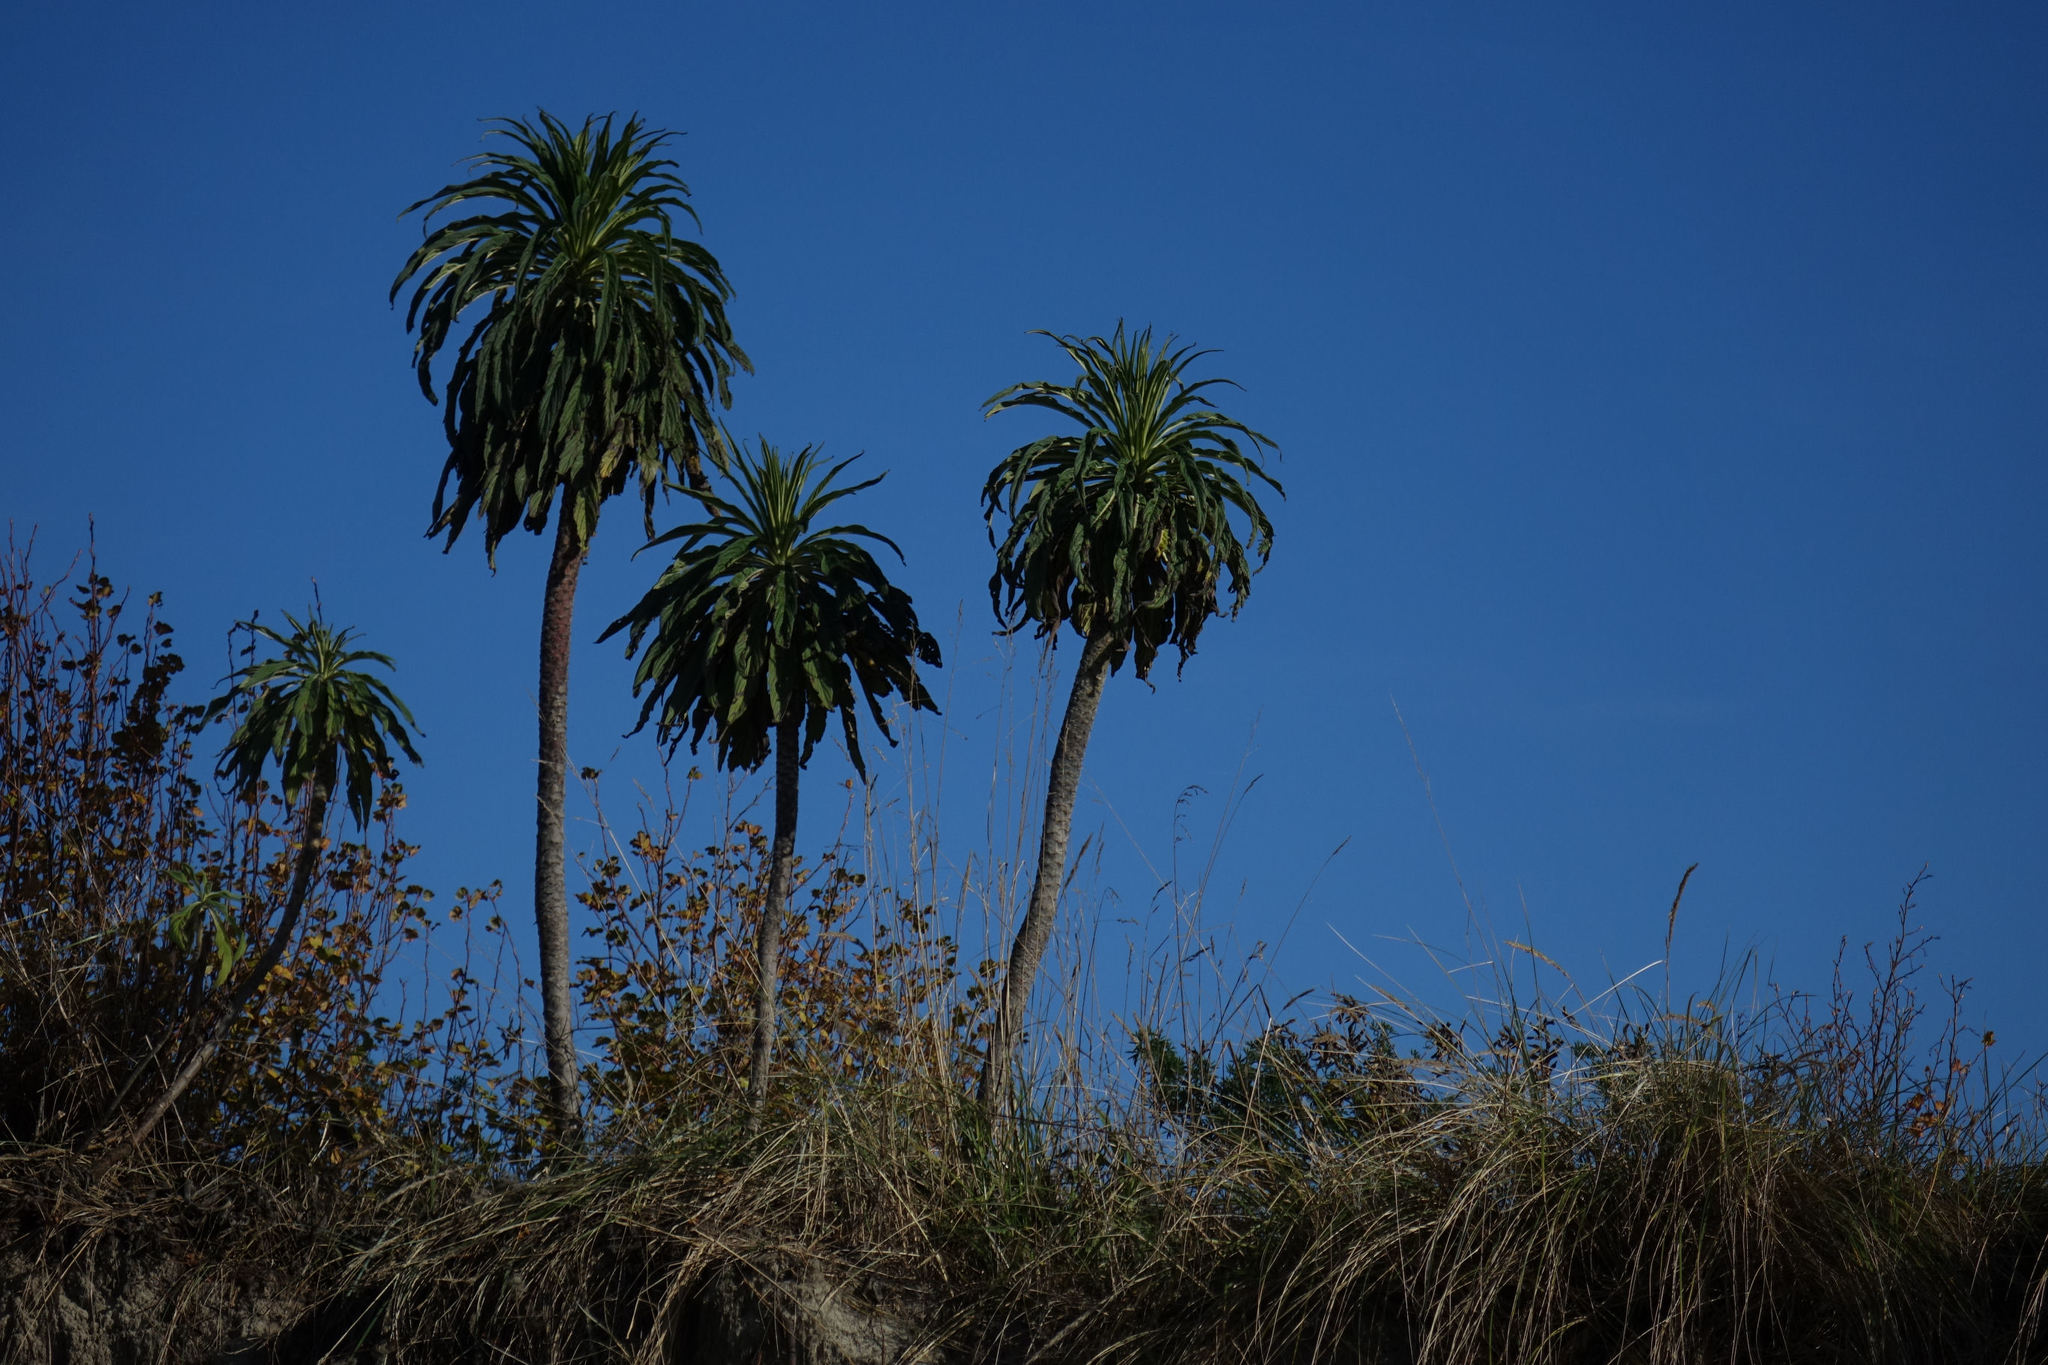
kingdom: Plantae
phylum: Tracheophyta
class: Magnoliopsida
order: Boraginales
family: Boraginaceae
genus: Echium
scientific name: Echium pininana
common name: Giant viper's-bugloss
